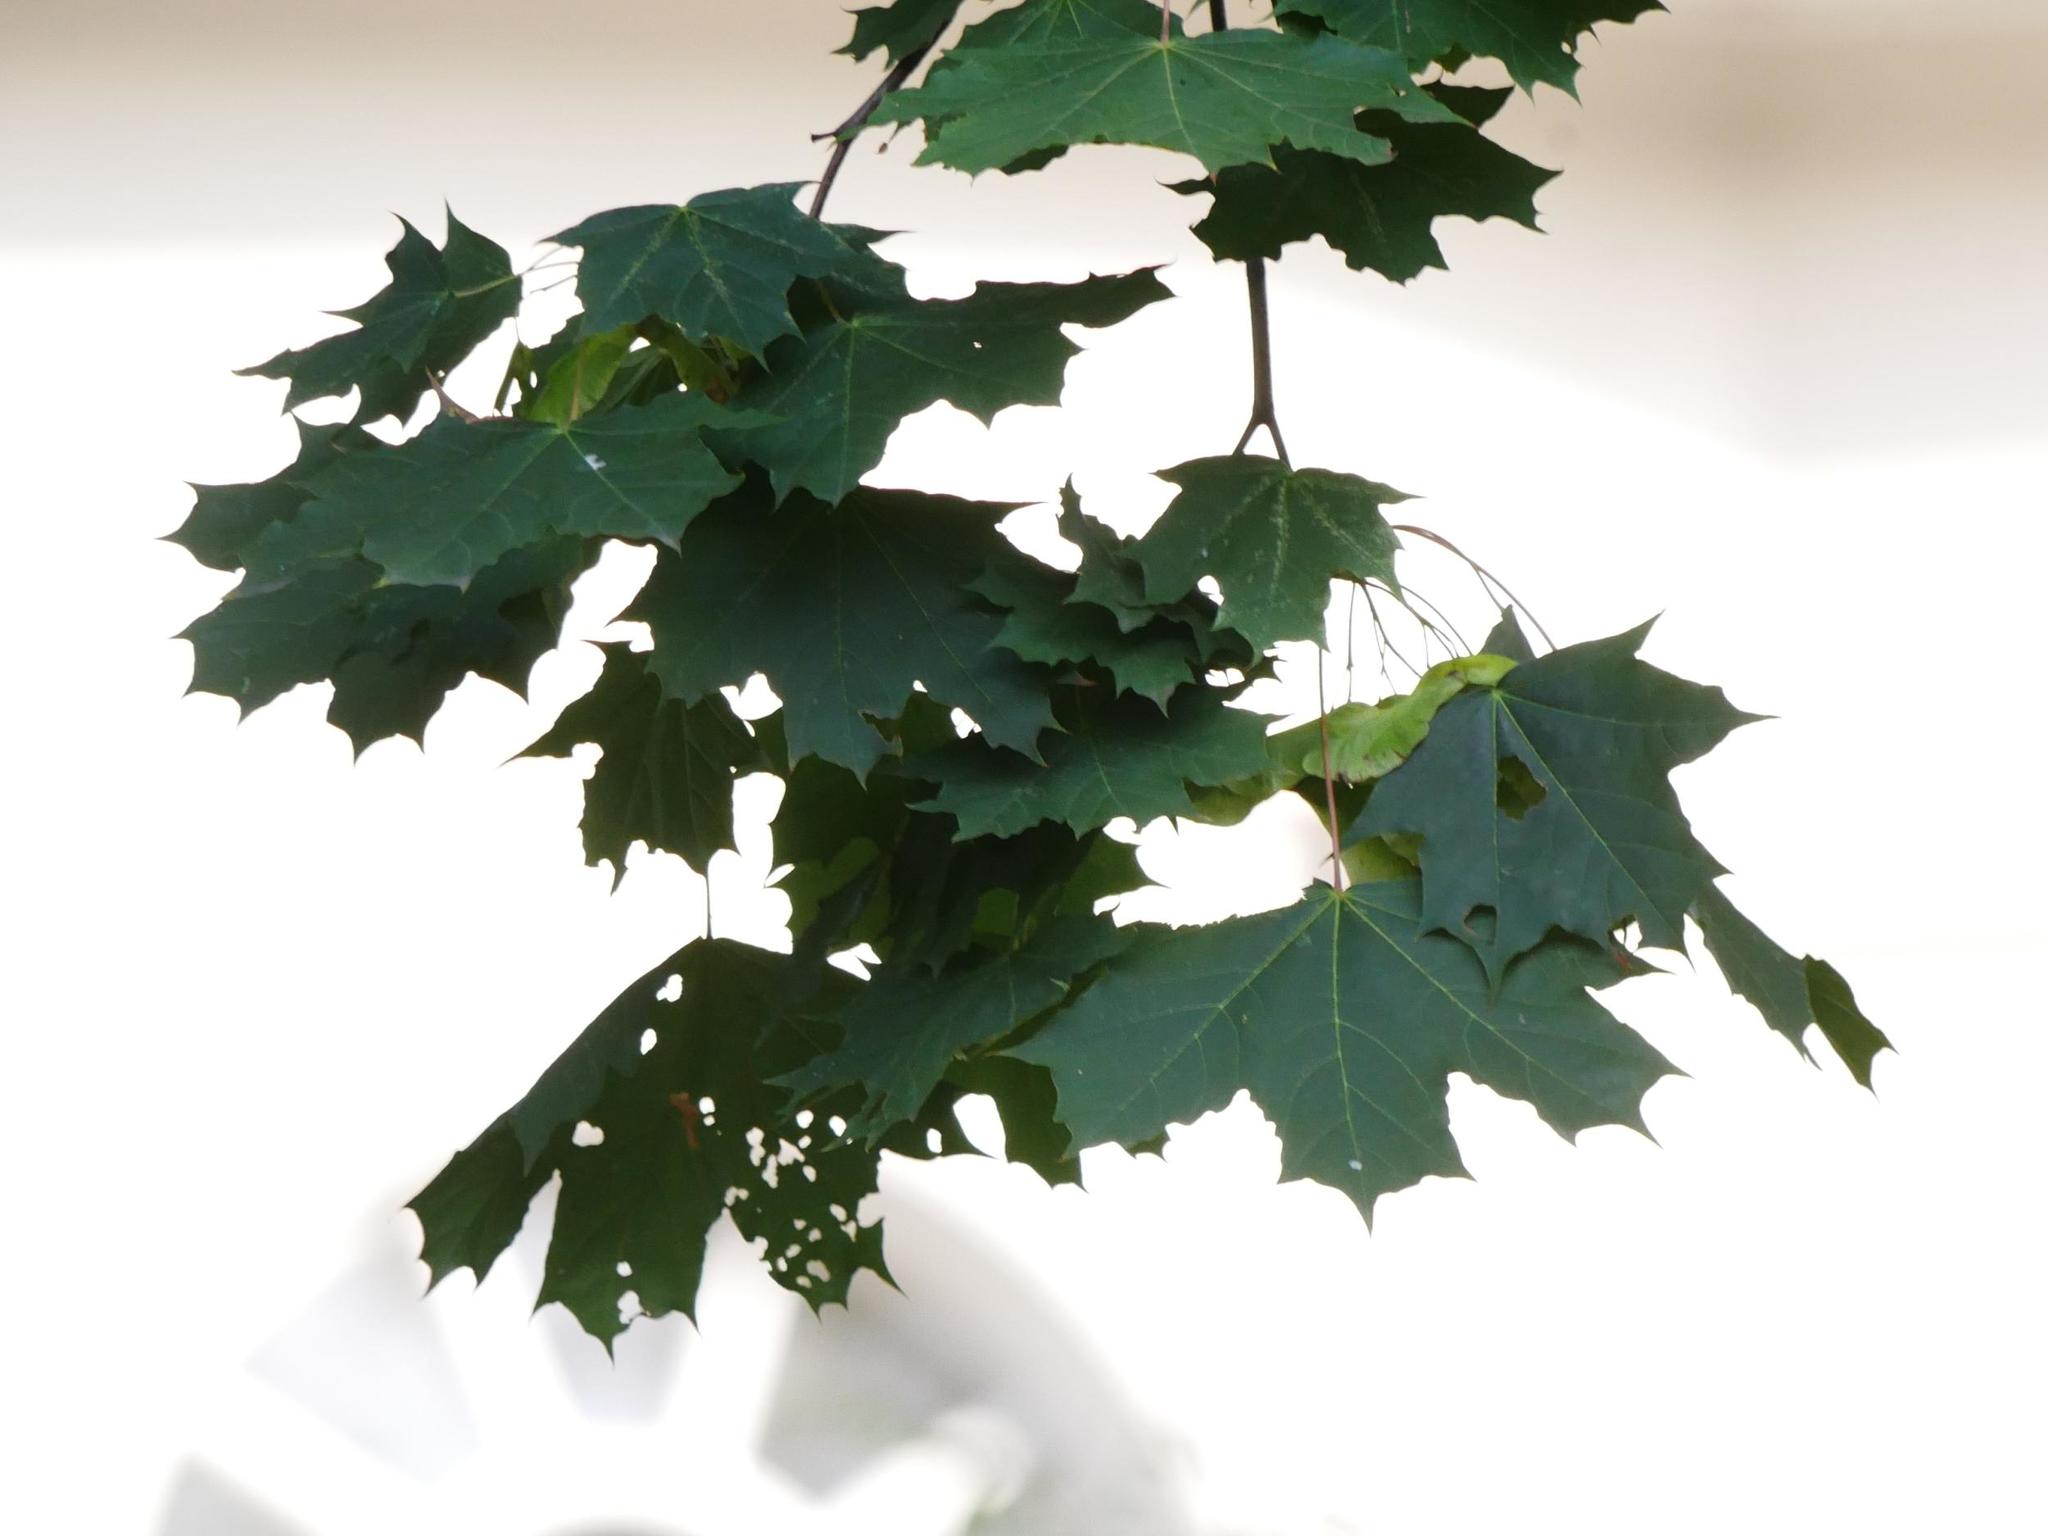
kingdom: Plantae
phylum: Tracheophyta
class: Magnoliopsida
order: Sapindales
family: Sapindaceae
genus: Acer
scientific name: Acer platanoides
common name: Norway maple
